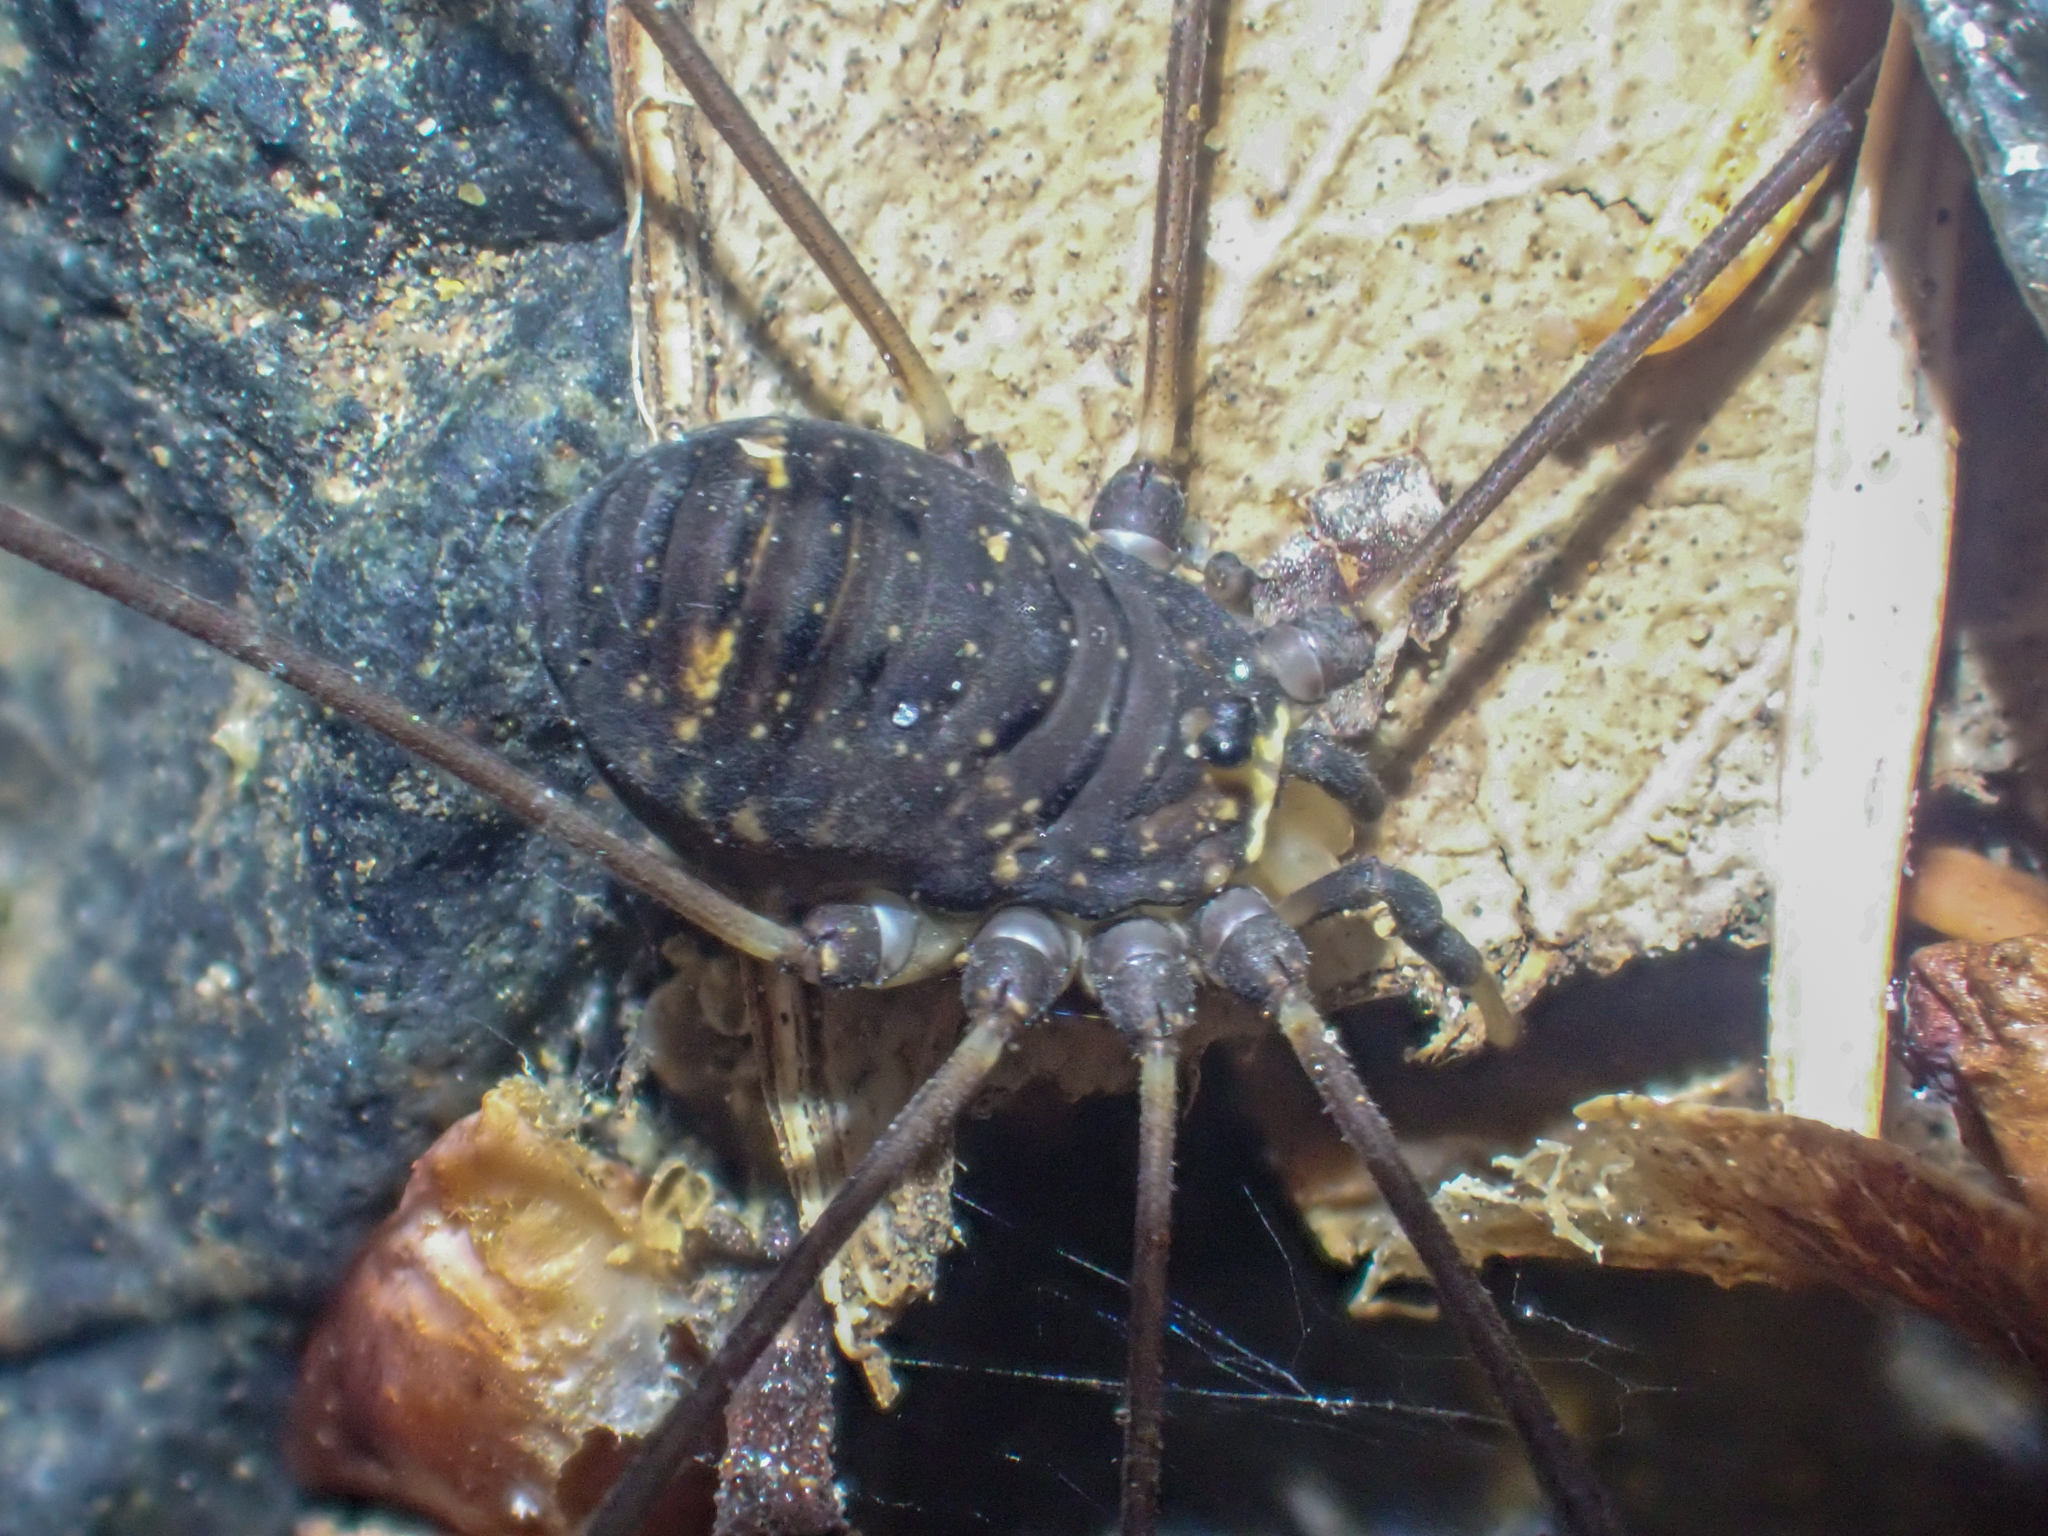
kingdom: Animalia
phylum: Arthropoda
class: Arachnida
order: Opiliones
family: Sclerosomatidae
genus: Leiobunum
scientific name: Leiobunum exilipes
